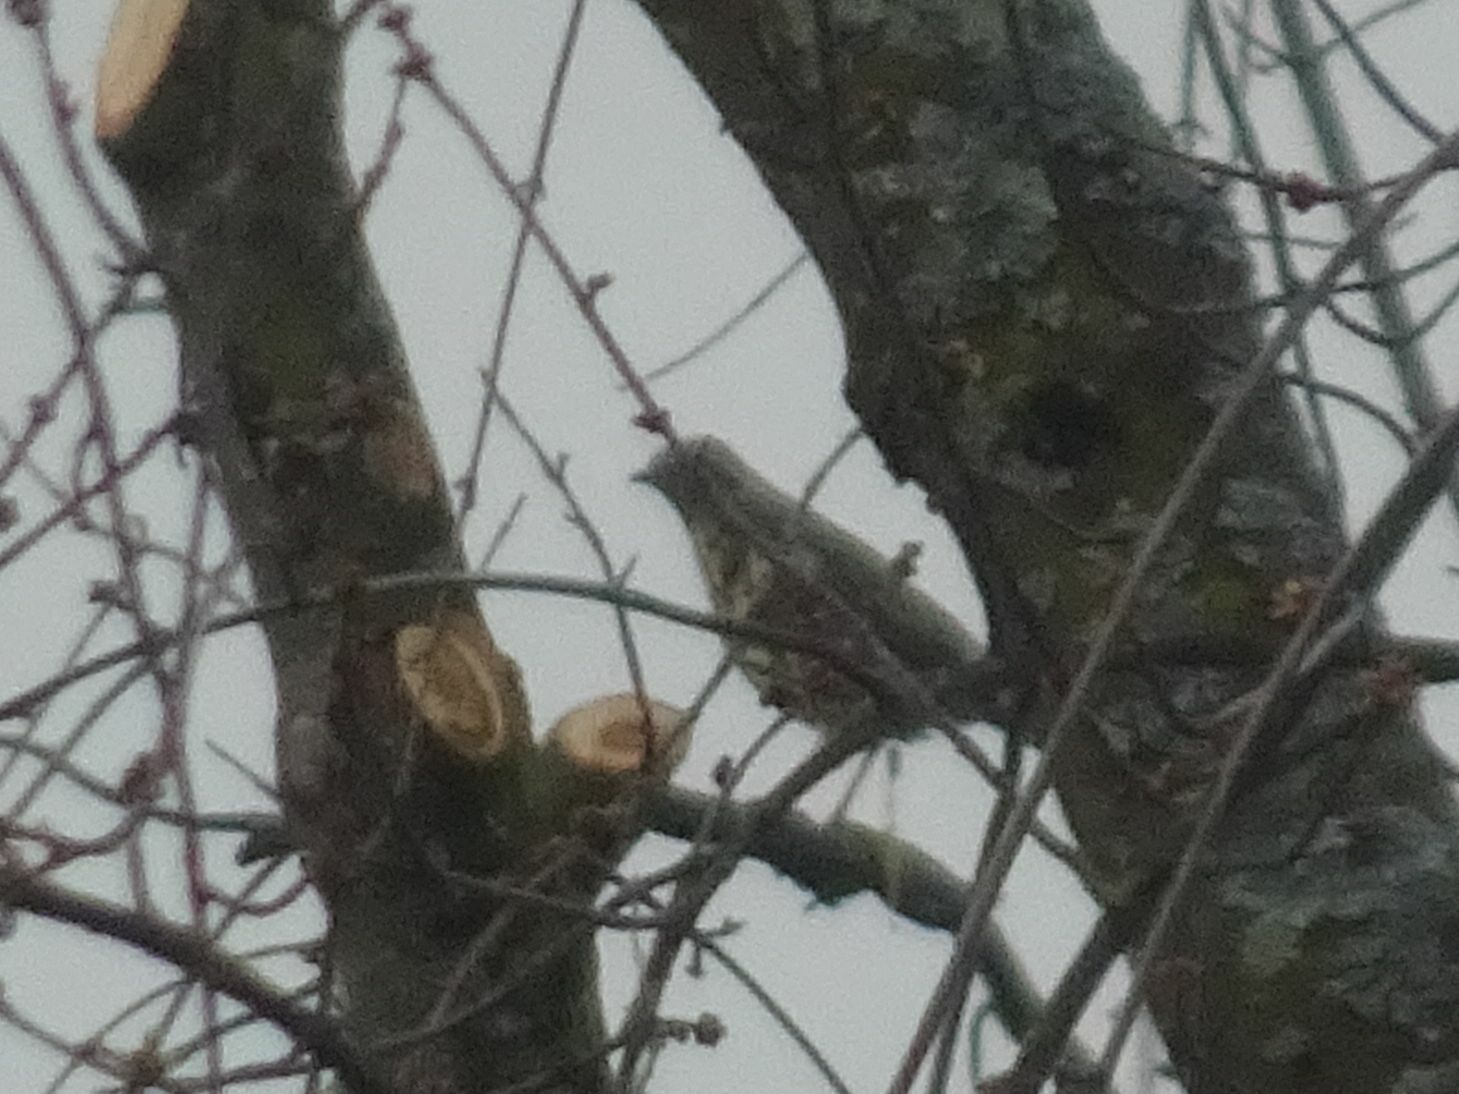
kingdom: Animalia
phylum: Chordata
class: Aves
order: Passeriformes
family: Turdidae
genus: Turdus
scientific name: Turdus viscivorus
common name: Mistle thrush
